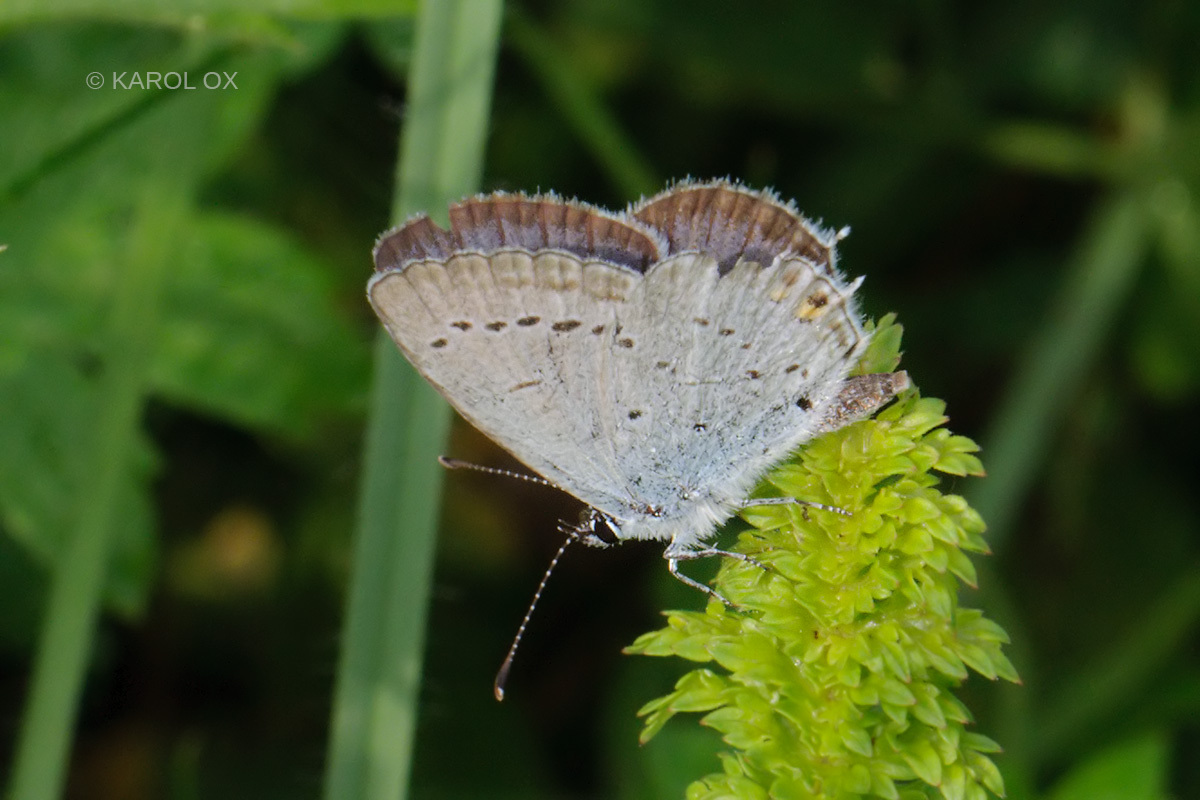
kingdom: Animalia
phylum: Arthropoda
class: Insecta
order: Lepidoptera
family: Lycaenidae
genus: Elkalyce
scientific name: Elkalyce argiades
